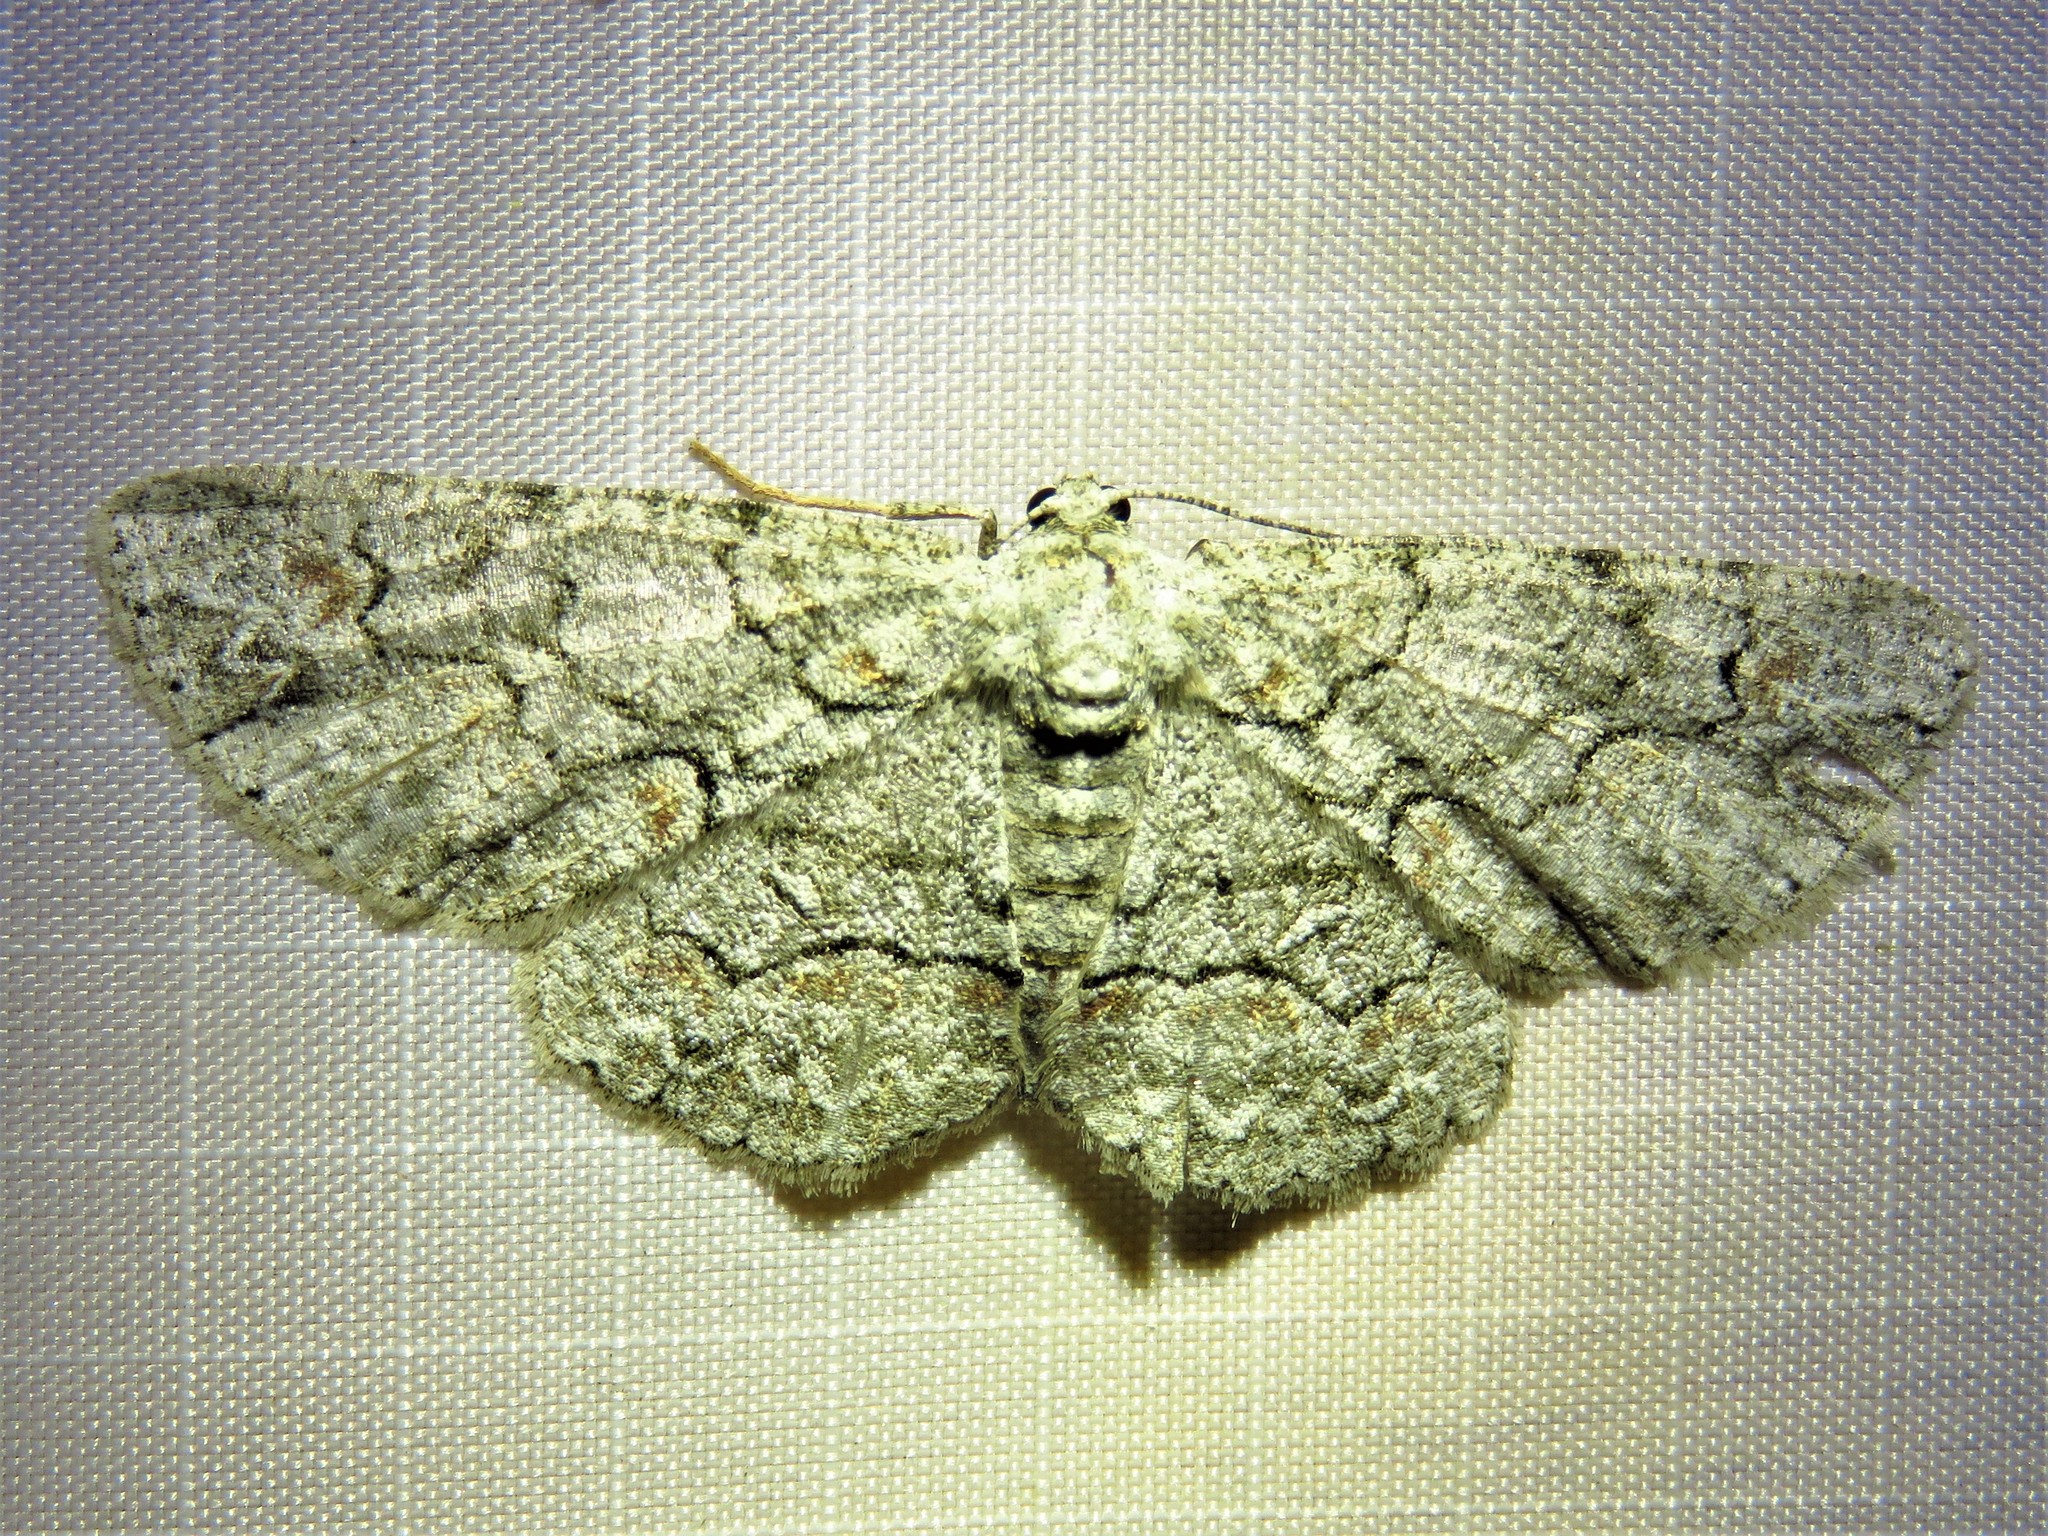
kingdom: Animalia
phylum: Arthropoda
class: Insecta
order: Lepidoptera
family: Geometridae
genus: Iridopsis
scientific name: Iridopsis defectaria
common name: Brown-shaded gray
